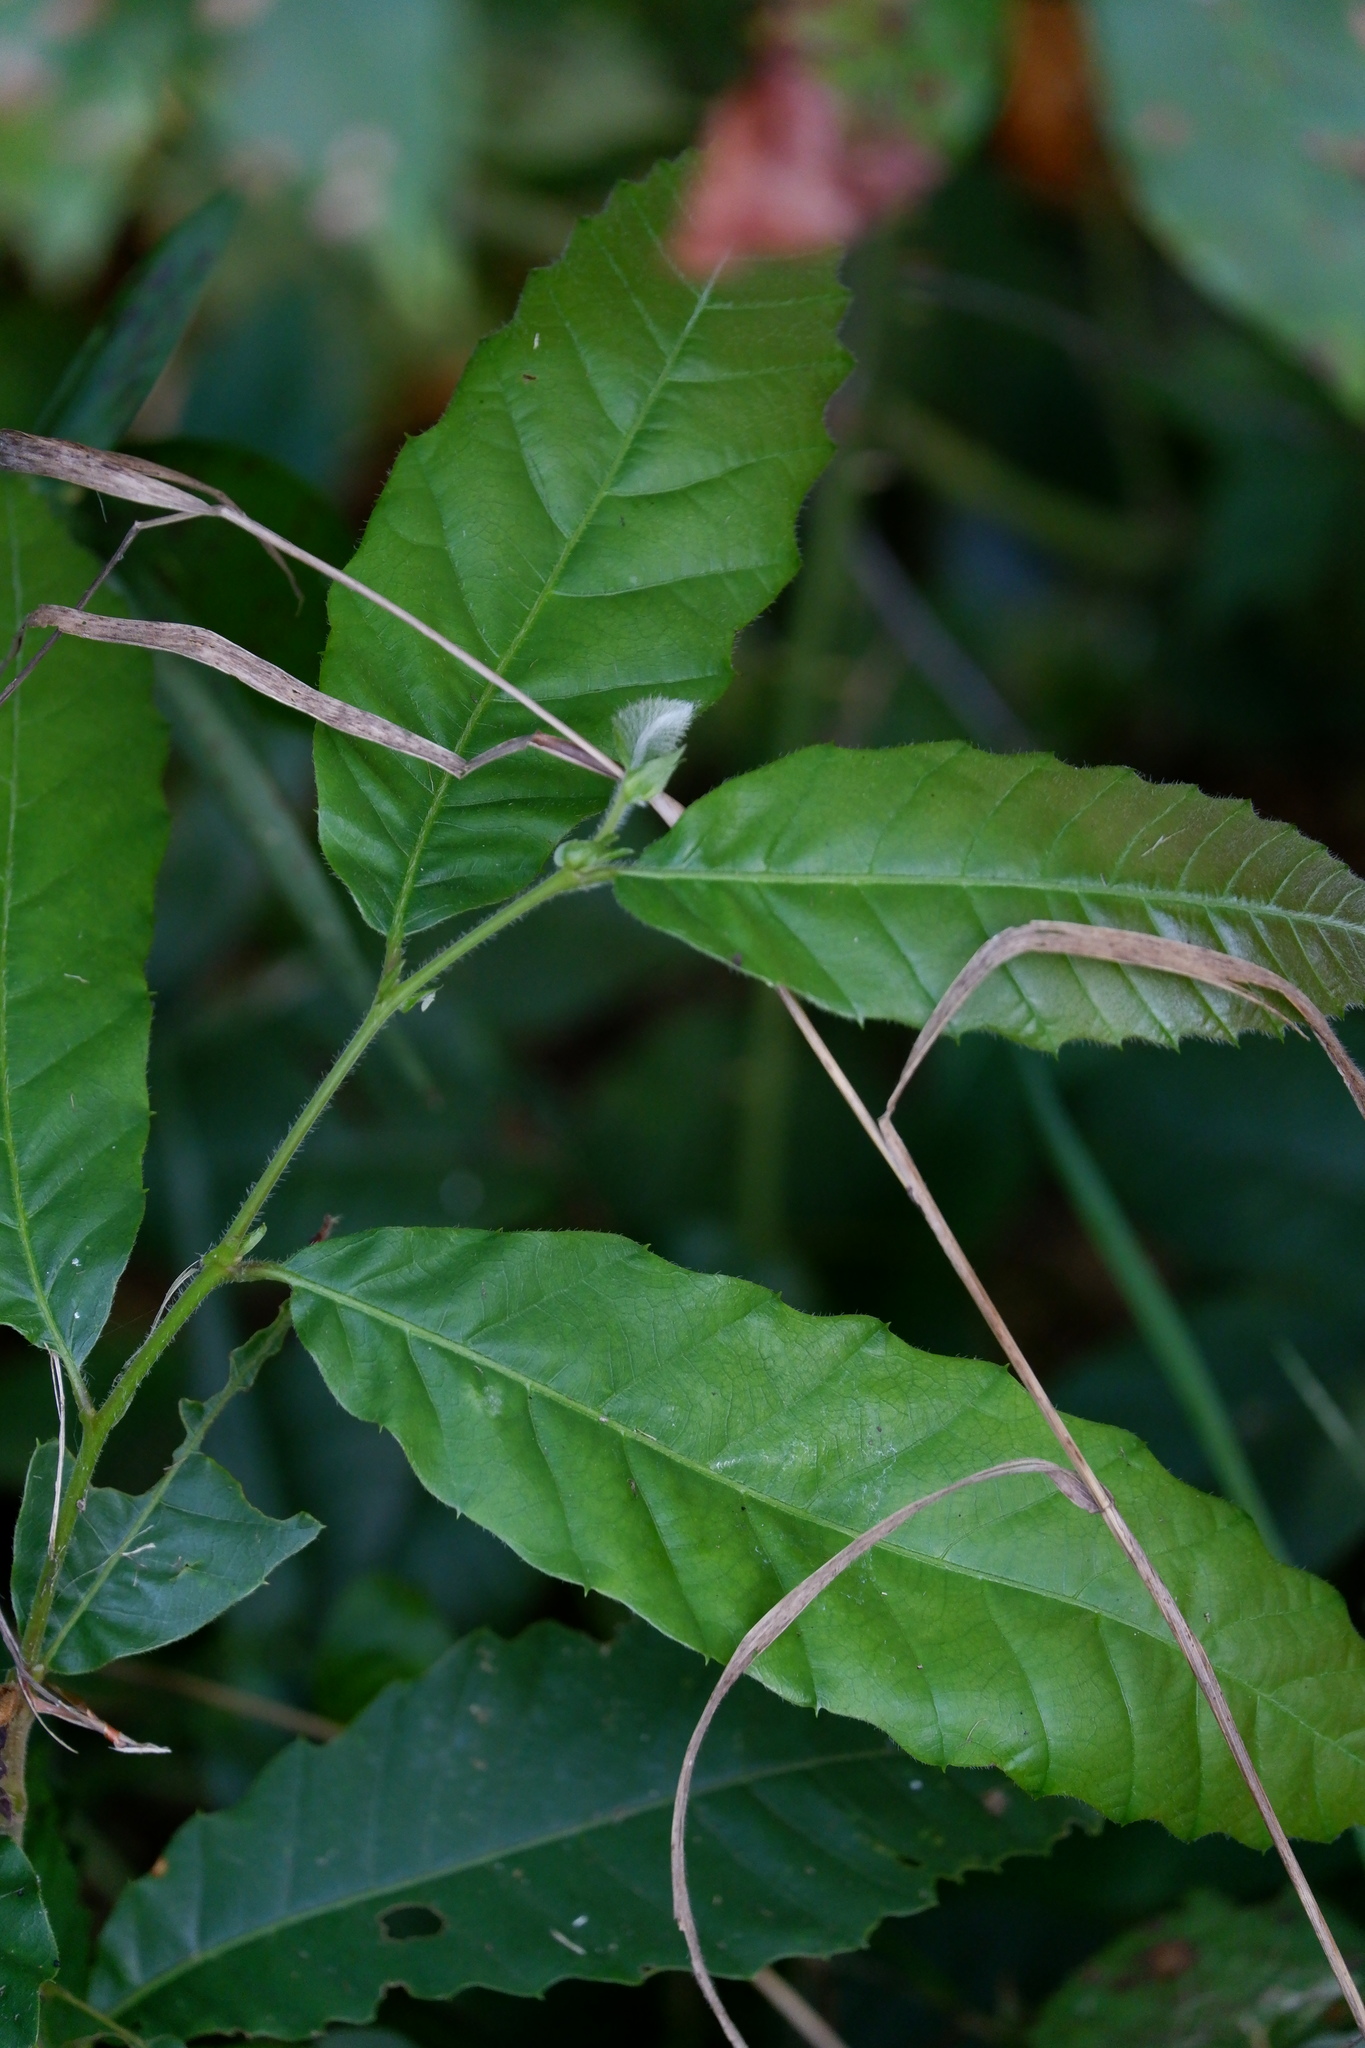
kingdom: Plantae
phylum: Tracheophyta
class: Magnoliopsida
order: Fagales
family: Fagaceae
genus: Castanea
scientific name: Castanea mollissima
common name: Chinese chestnut
